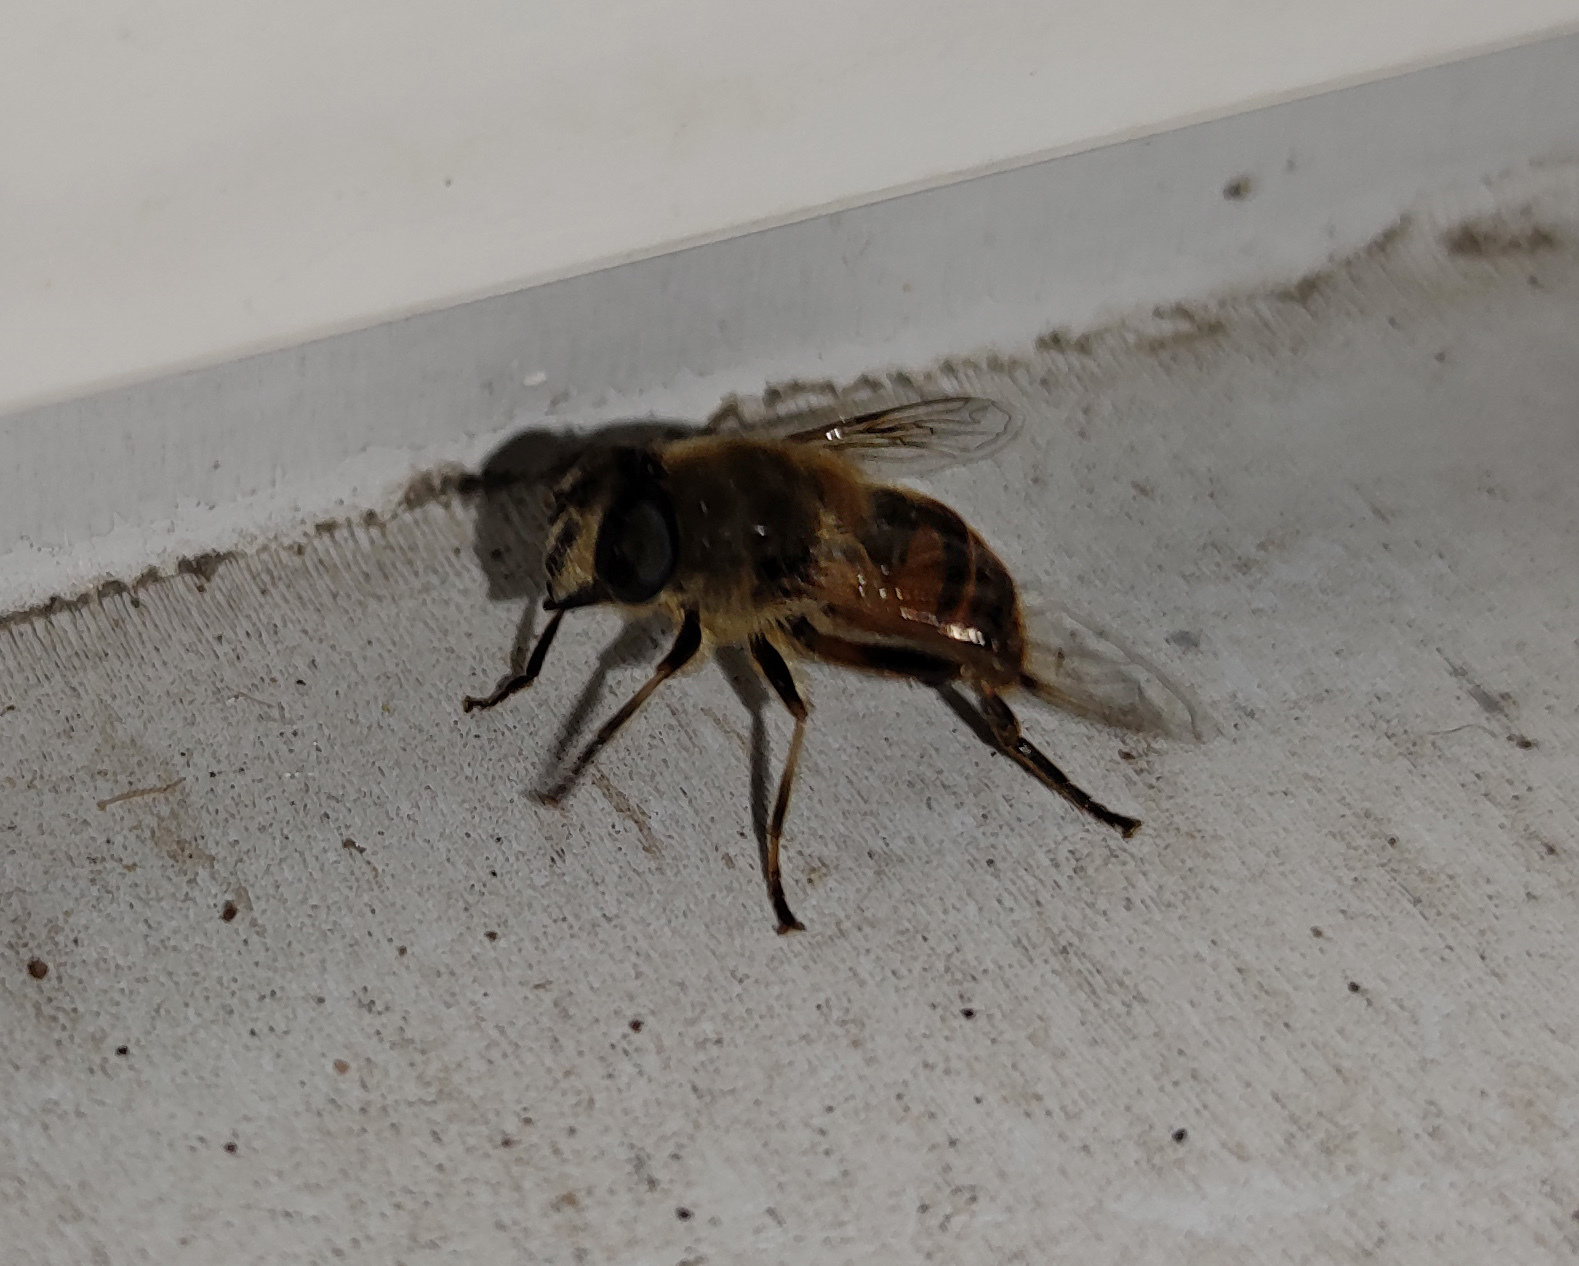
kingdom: Animalia
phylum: Arthropoda
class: Insecta
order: Diptera
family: Syrphidae
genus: Eristalis
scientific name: Eristalis tenax
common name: Drone fly
